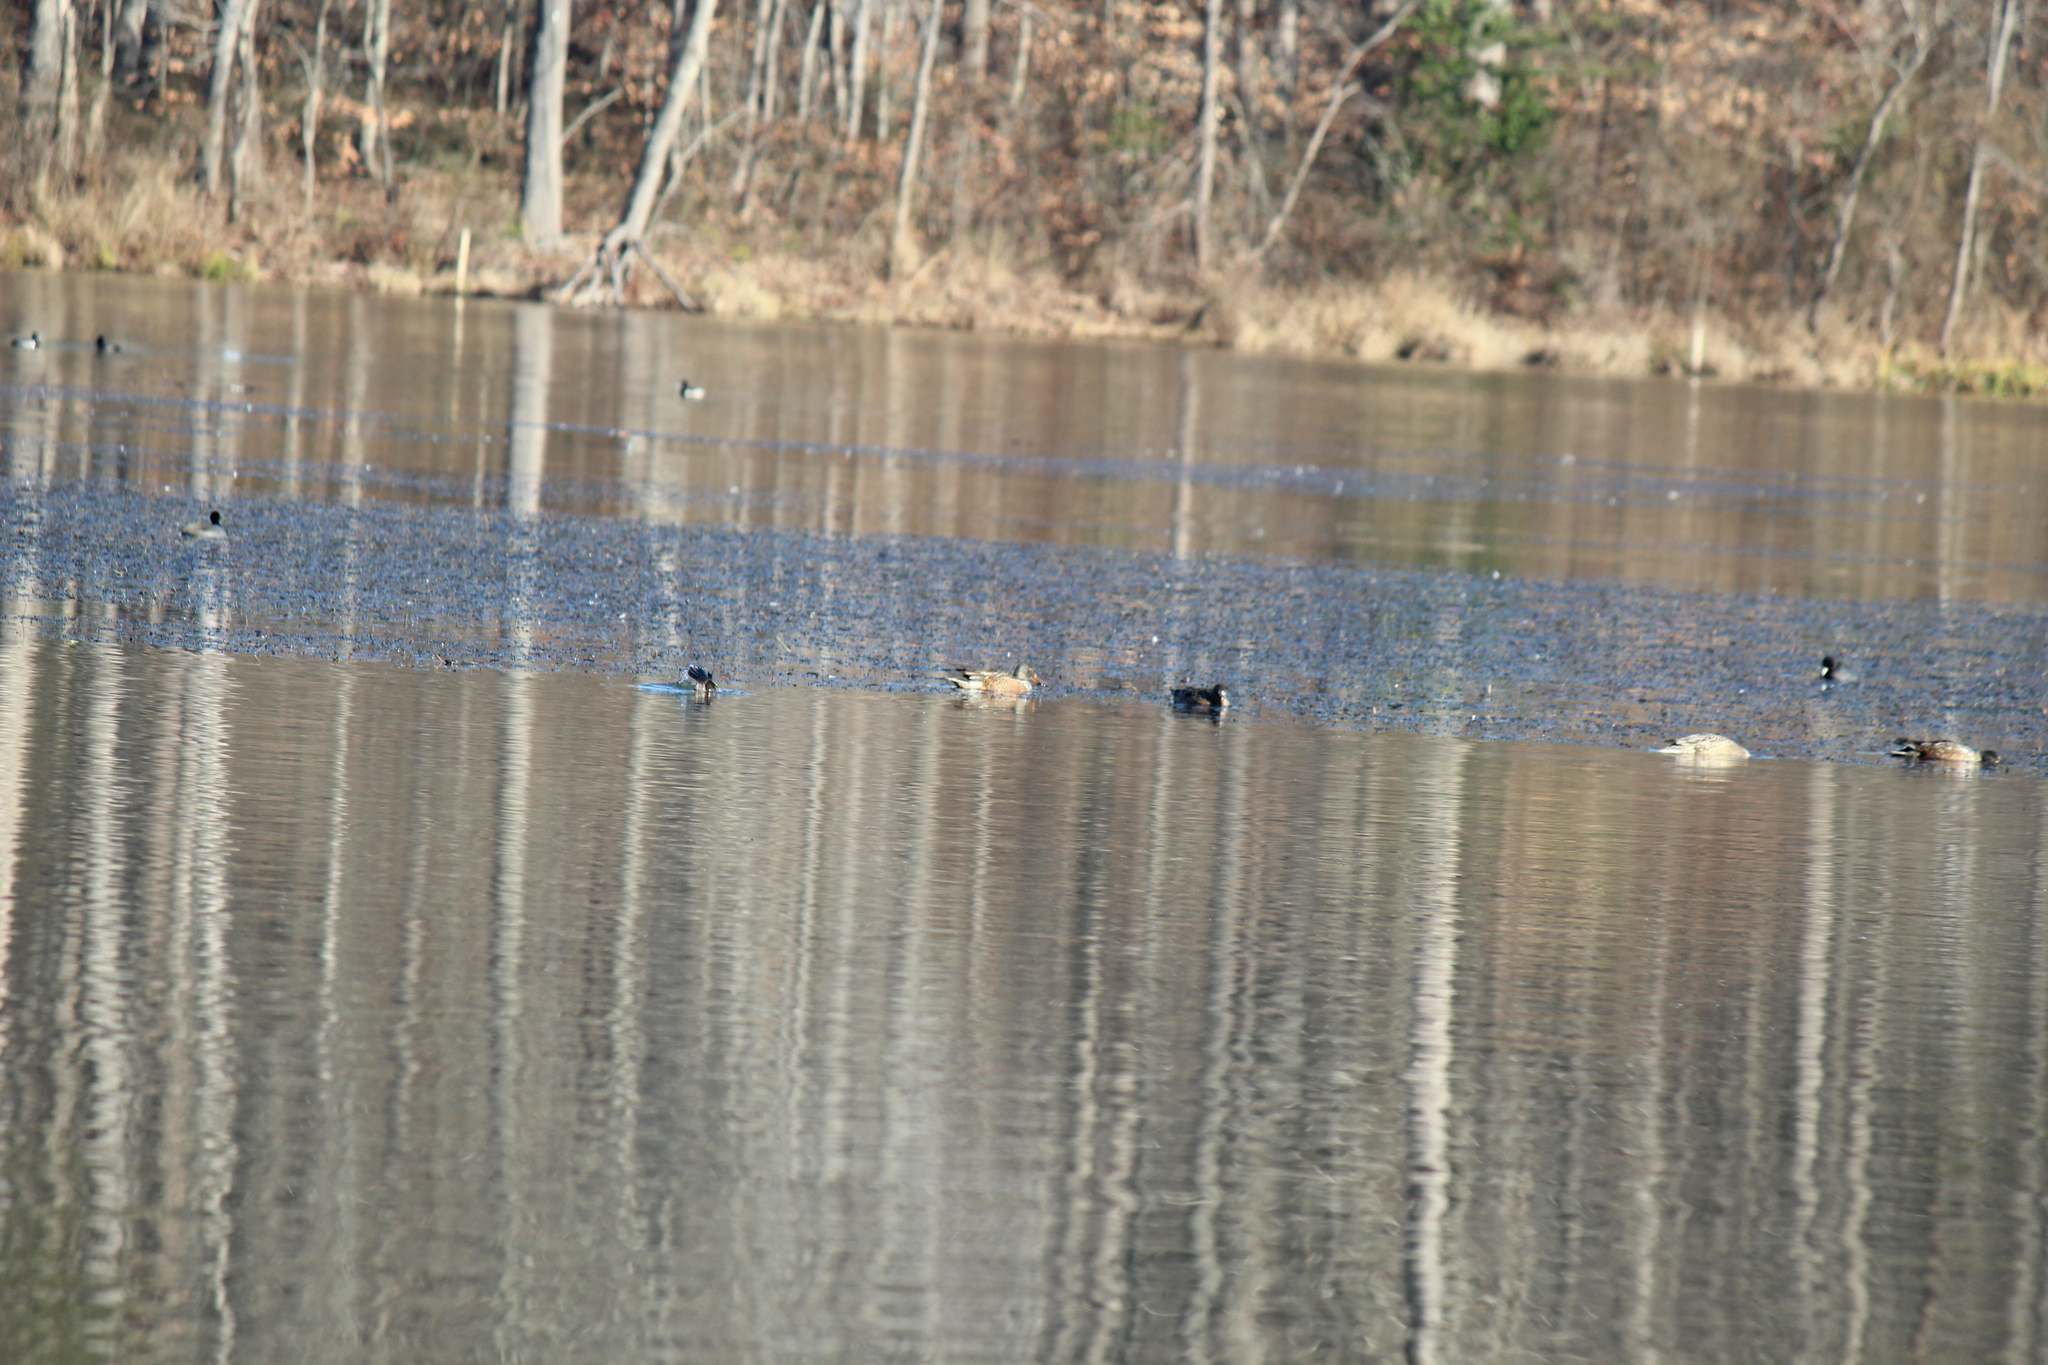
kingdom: Animalia
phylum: Chordata
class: Aves
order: Anseriformes
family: Anatidae
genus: Spatula
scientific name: Spatula clypeata
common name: Northern shoveler
